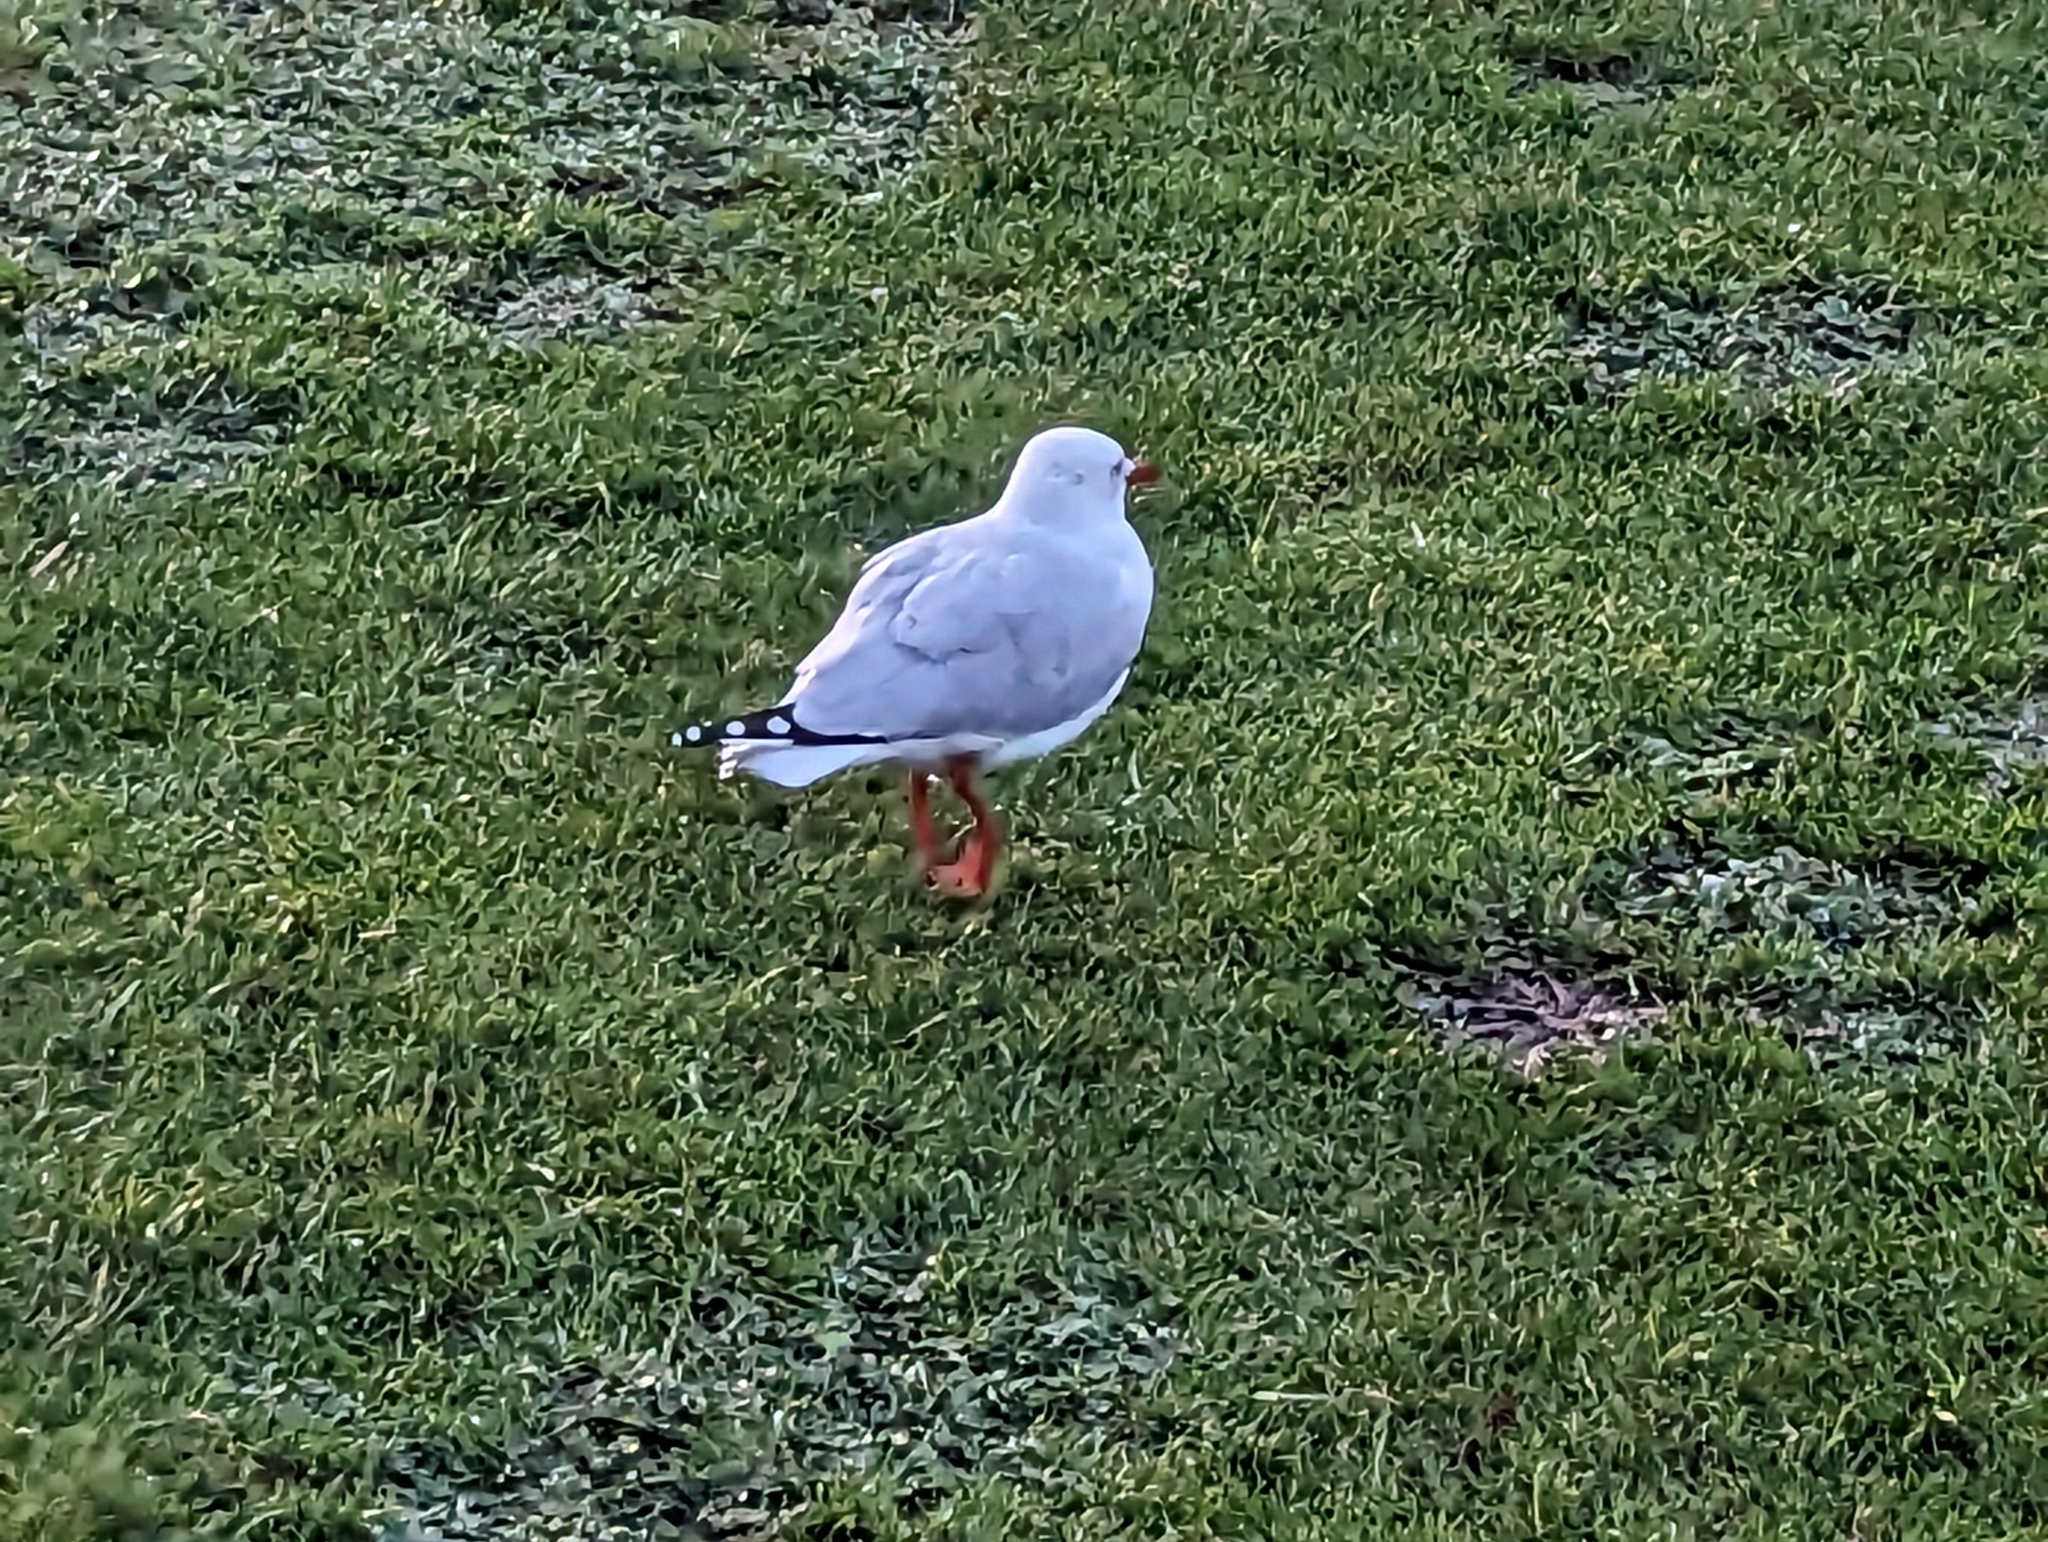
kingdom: Animalia
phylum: Chordata
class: Aves
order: Charadriiformes
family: Laridae
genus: Chroicocephalus
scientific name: Chroicocephalus novaehollandiae
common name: Silver gull
